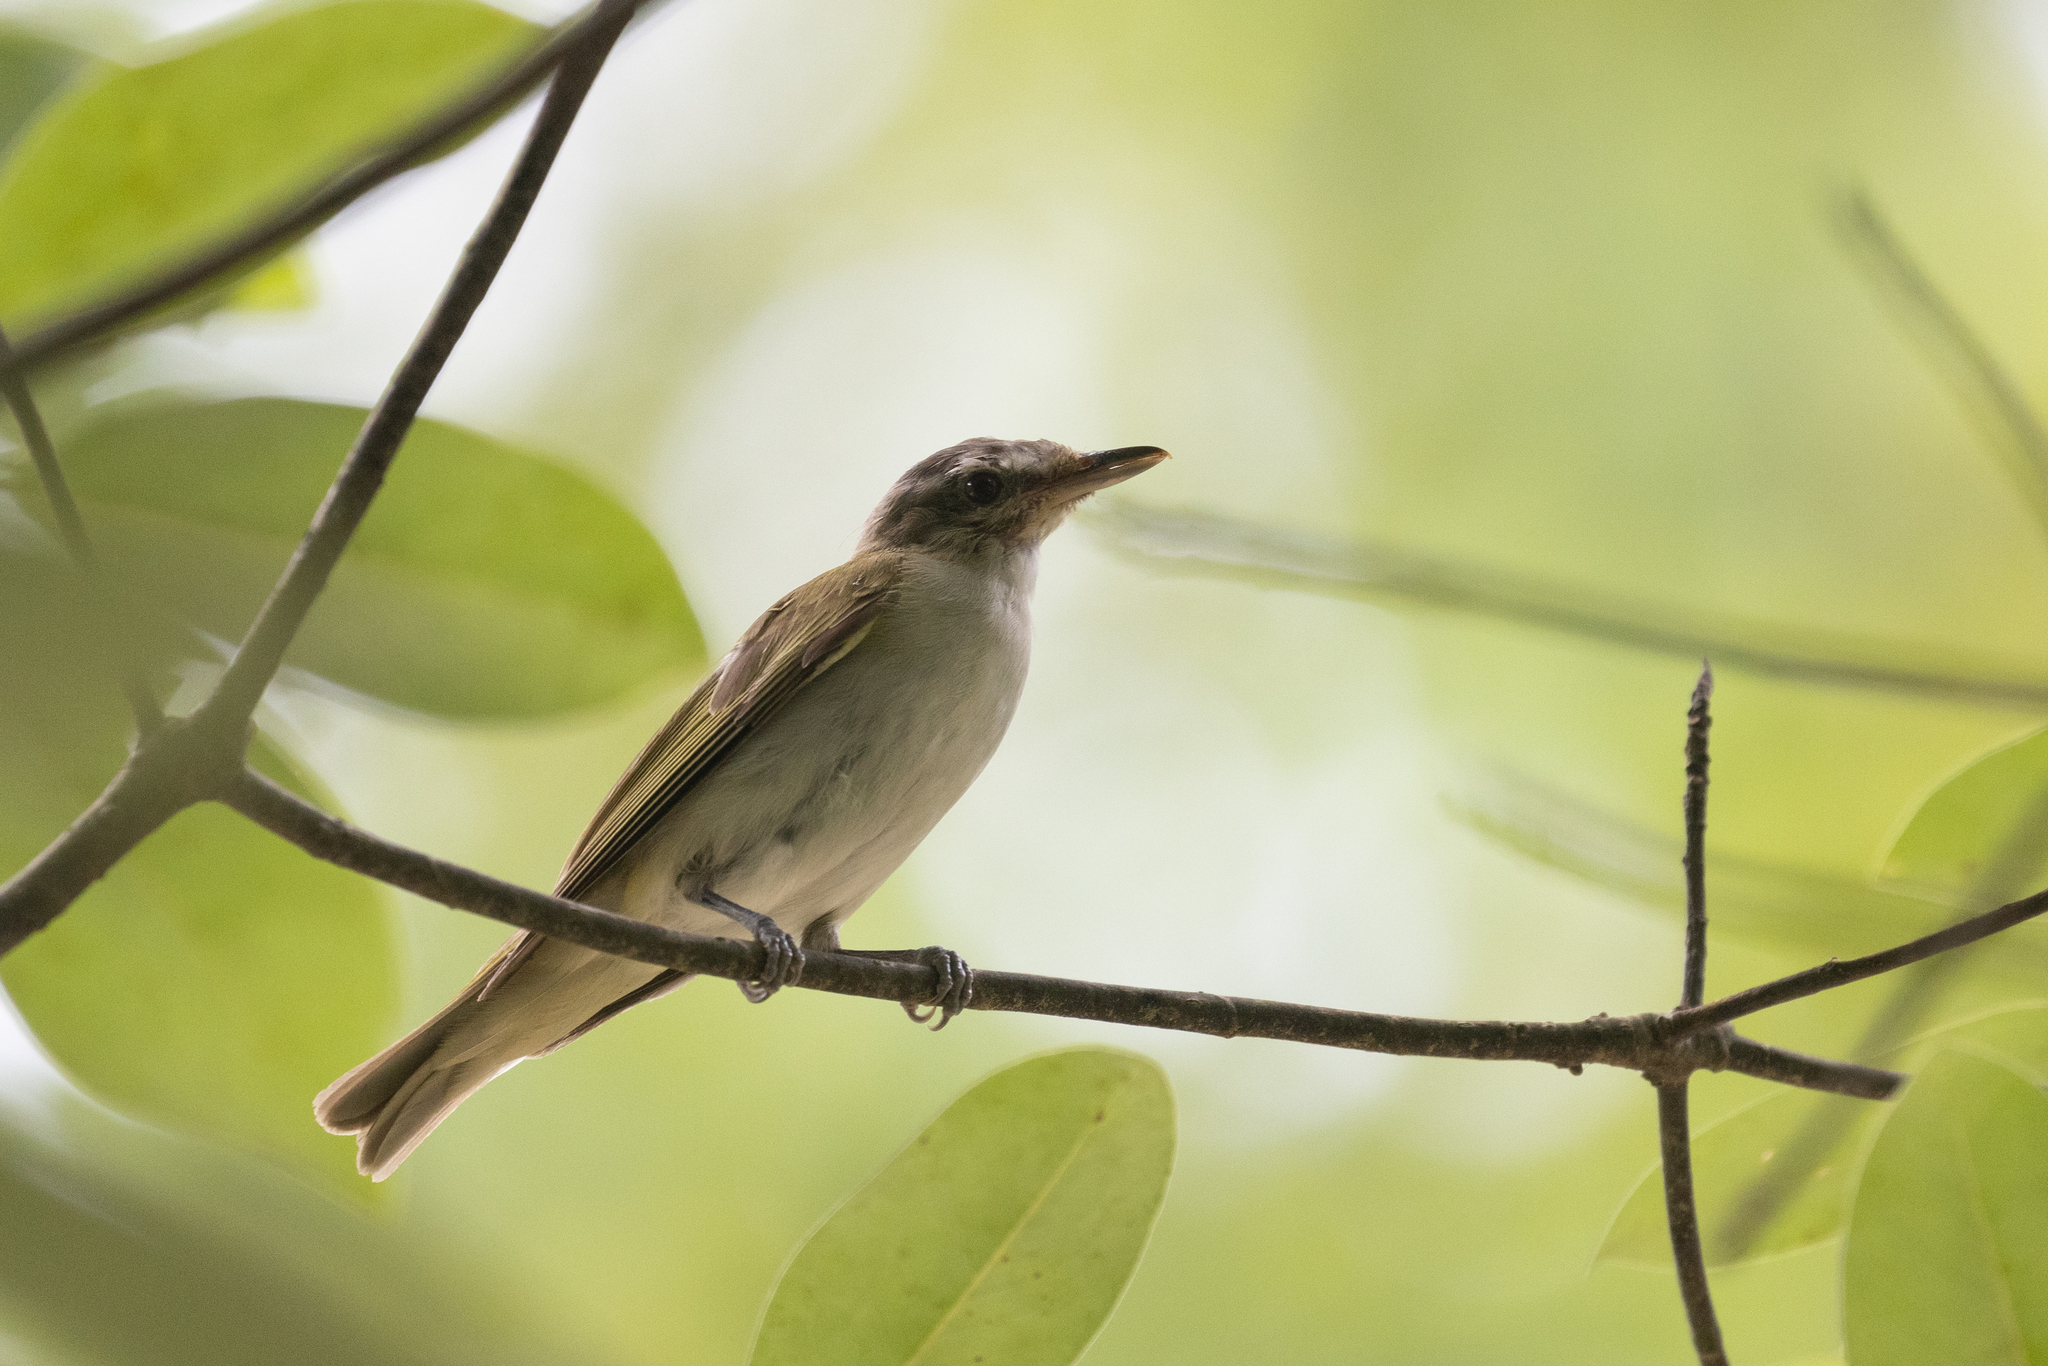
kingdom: Animalia
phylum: Chordata
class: Aves
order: Passeriformes
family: Vireonidae
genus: Vireo
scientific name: Vireo olivaceus
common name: Red-eyed vireo
